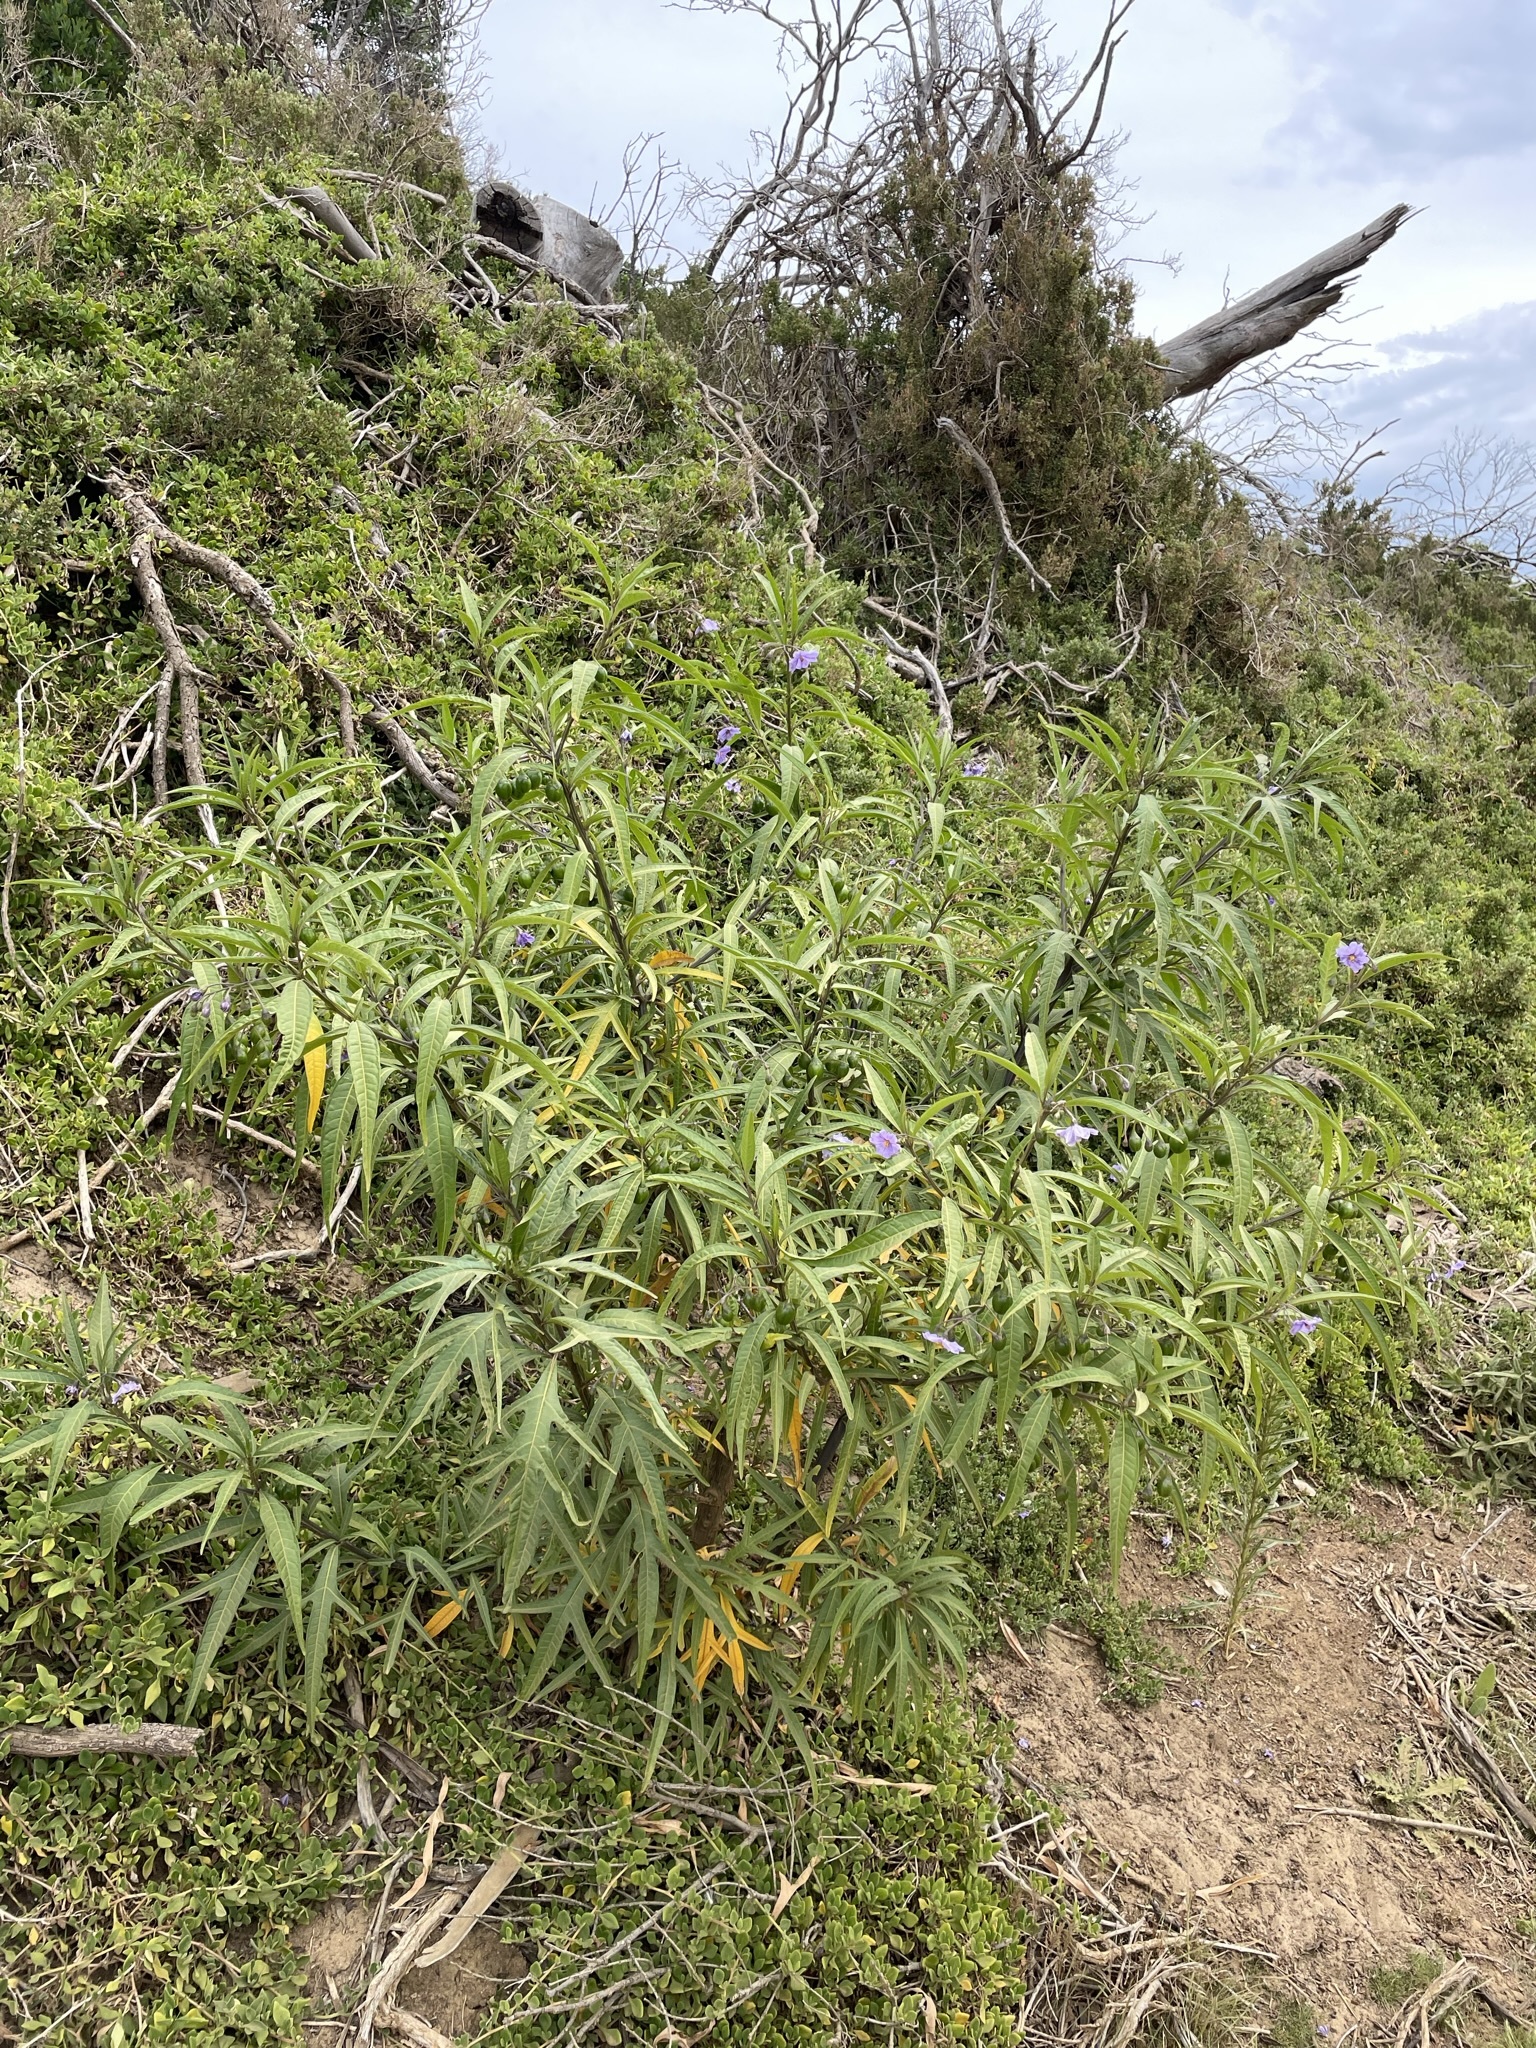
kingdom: Plantae
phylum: Tracheophyta
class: Magnoliopsida
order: Solanales
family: Solanaceae
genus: Solanum
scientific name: Solanum laciniatum
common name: Kangaroo-apple
